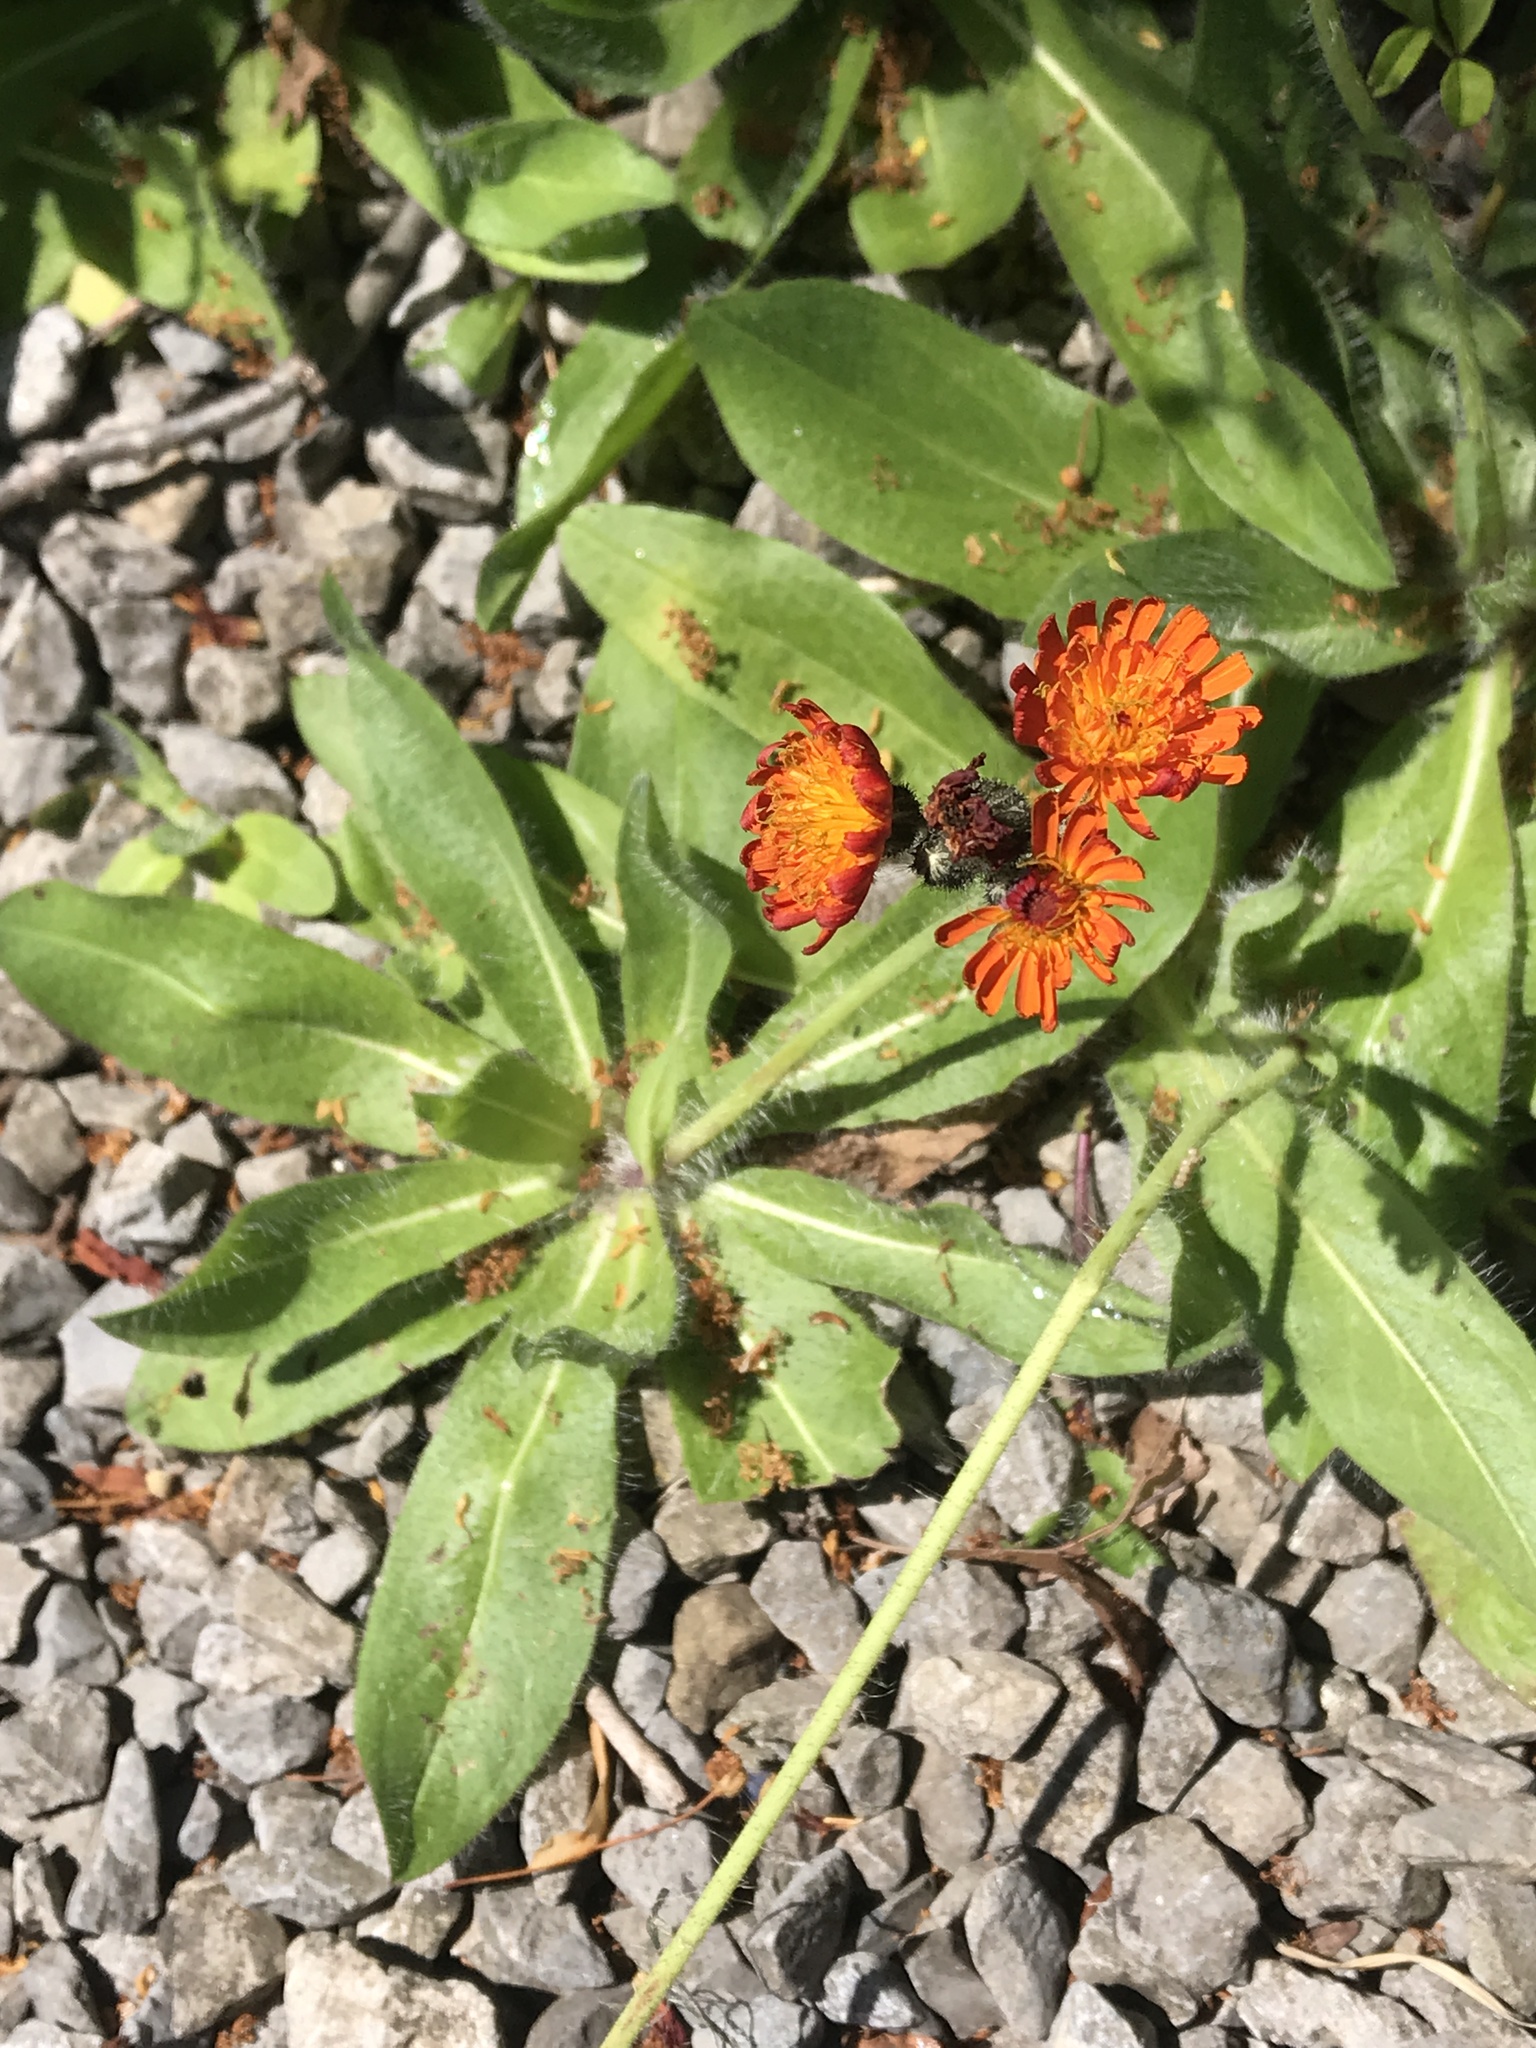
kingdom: Plantae
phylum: Tracheophyta
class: Magnoliopsida
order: Asterales
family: Asteraceae
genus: Pilosella
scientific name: Pilosella aurantiaca
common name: Fox-and-cubs
